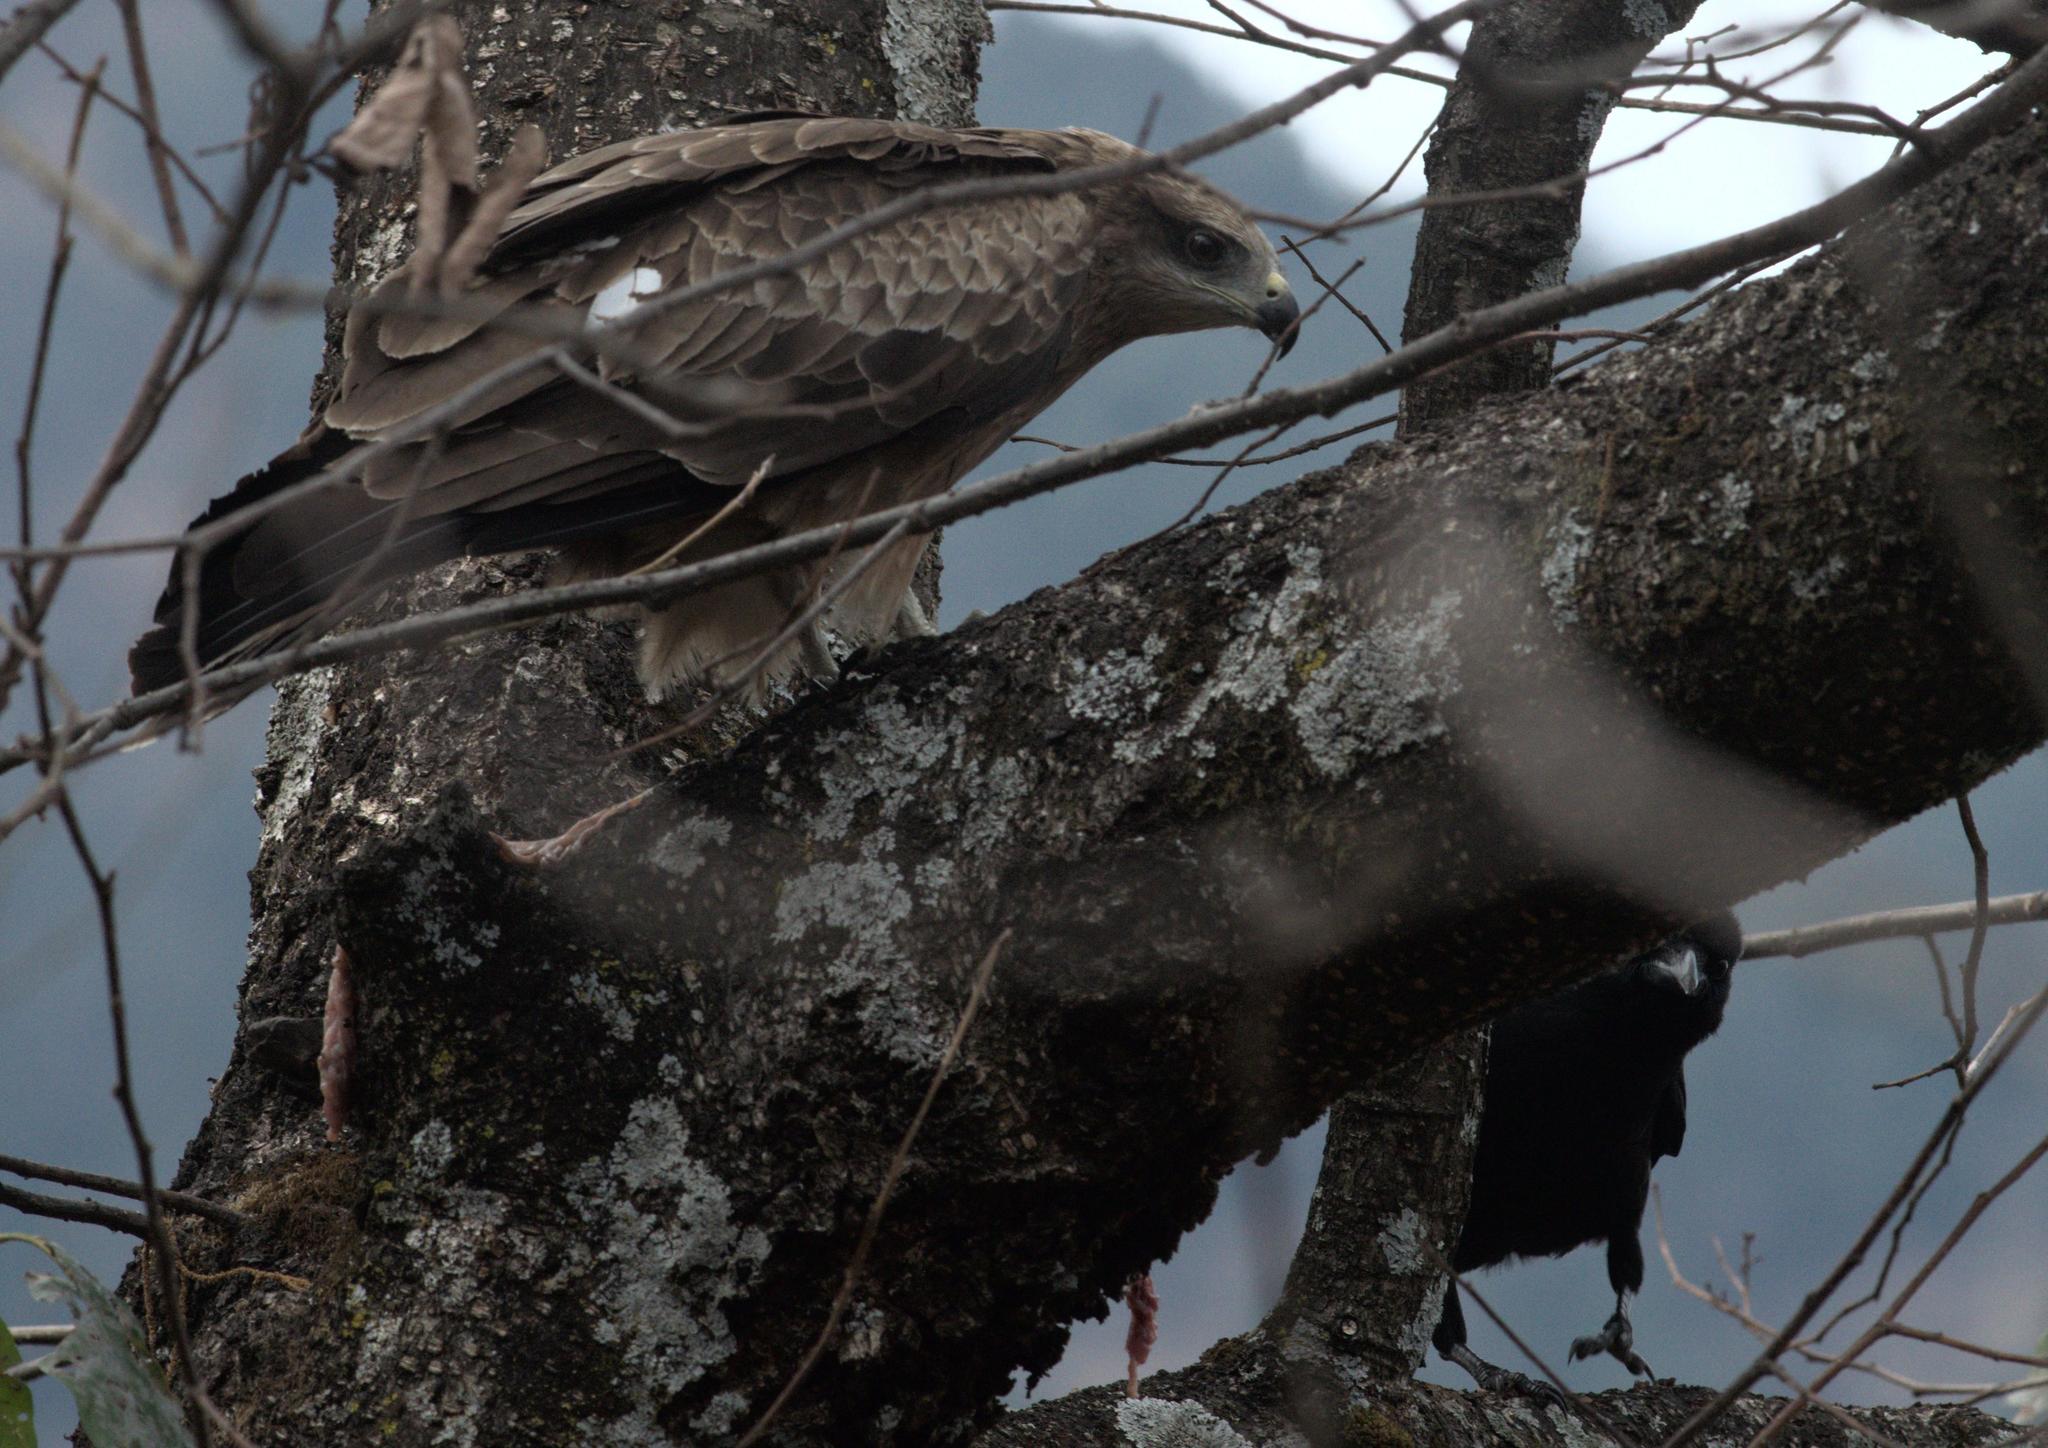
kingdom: Animalia
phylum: Chordata
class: Aves
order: Accipitriformes
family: Accipitridae
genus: Milvus
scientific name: Milvus migrans
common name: Black kite
